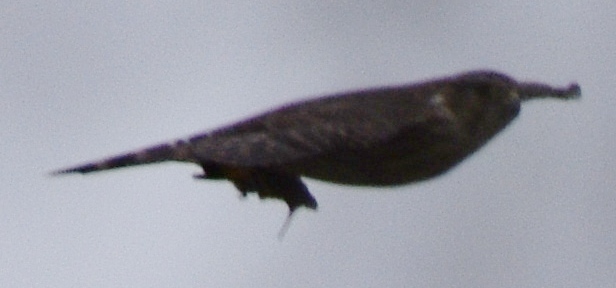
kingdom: Animalia
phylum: Chordata
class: Aves
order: Falconiformes
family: Falconidae
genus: Falco
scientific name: Falco columbarius
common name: Merlin
